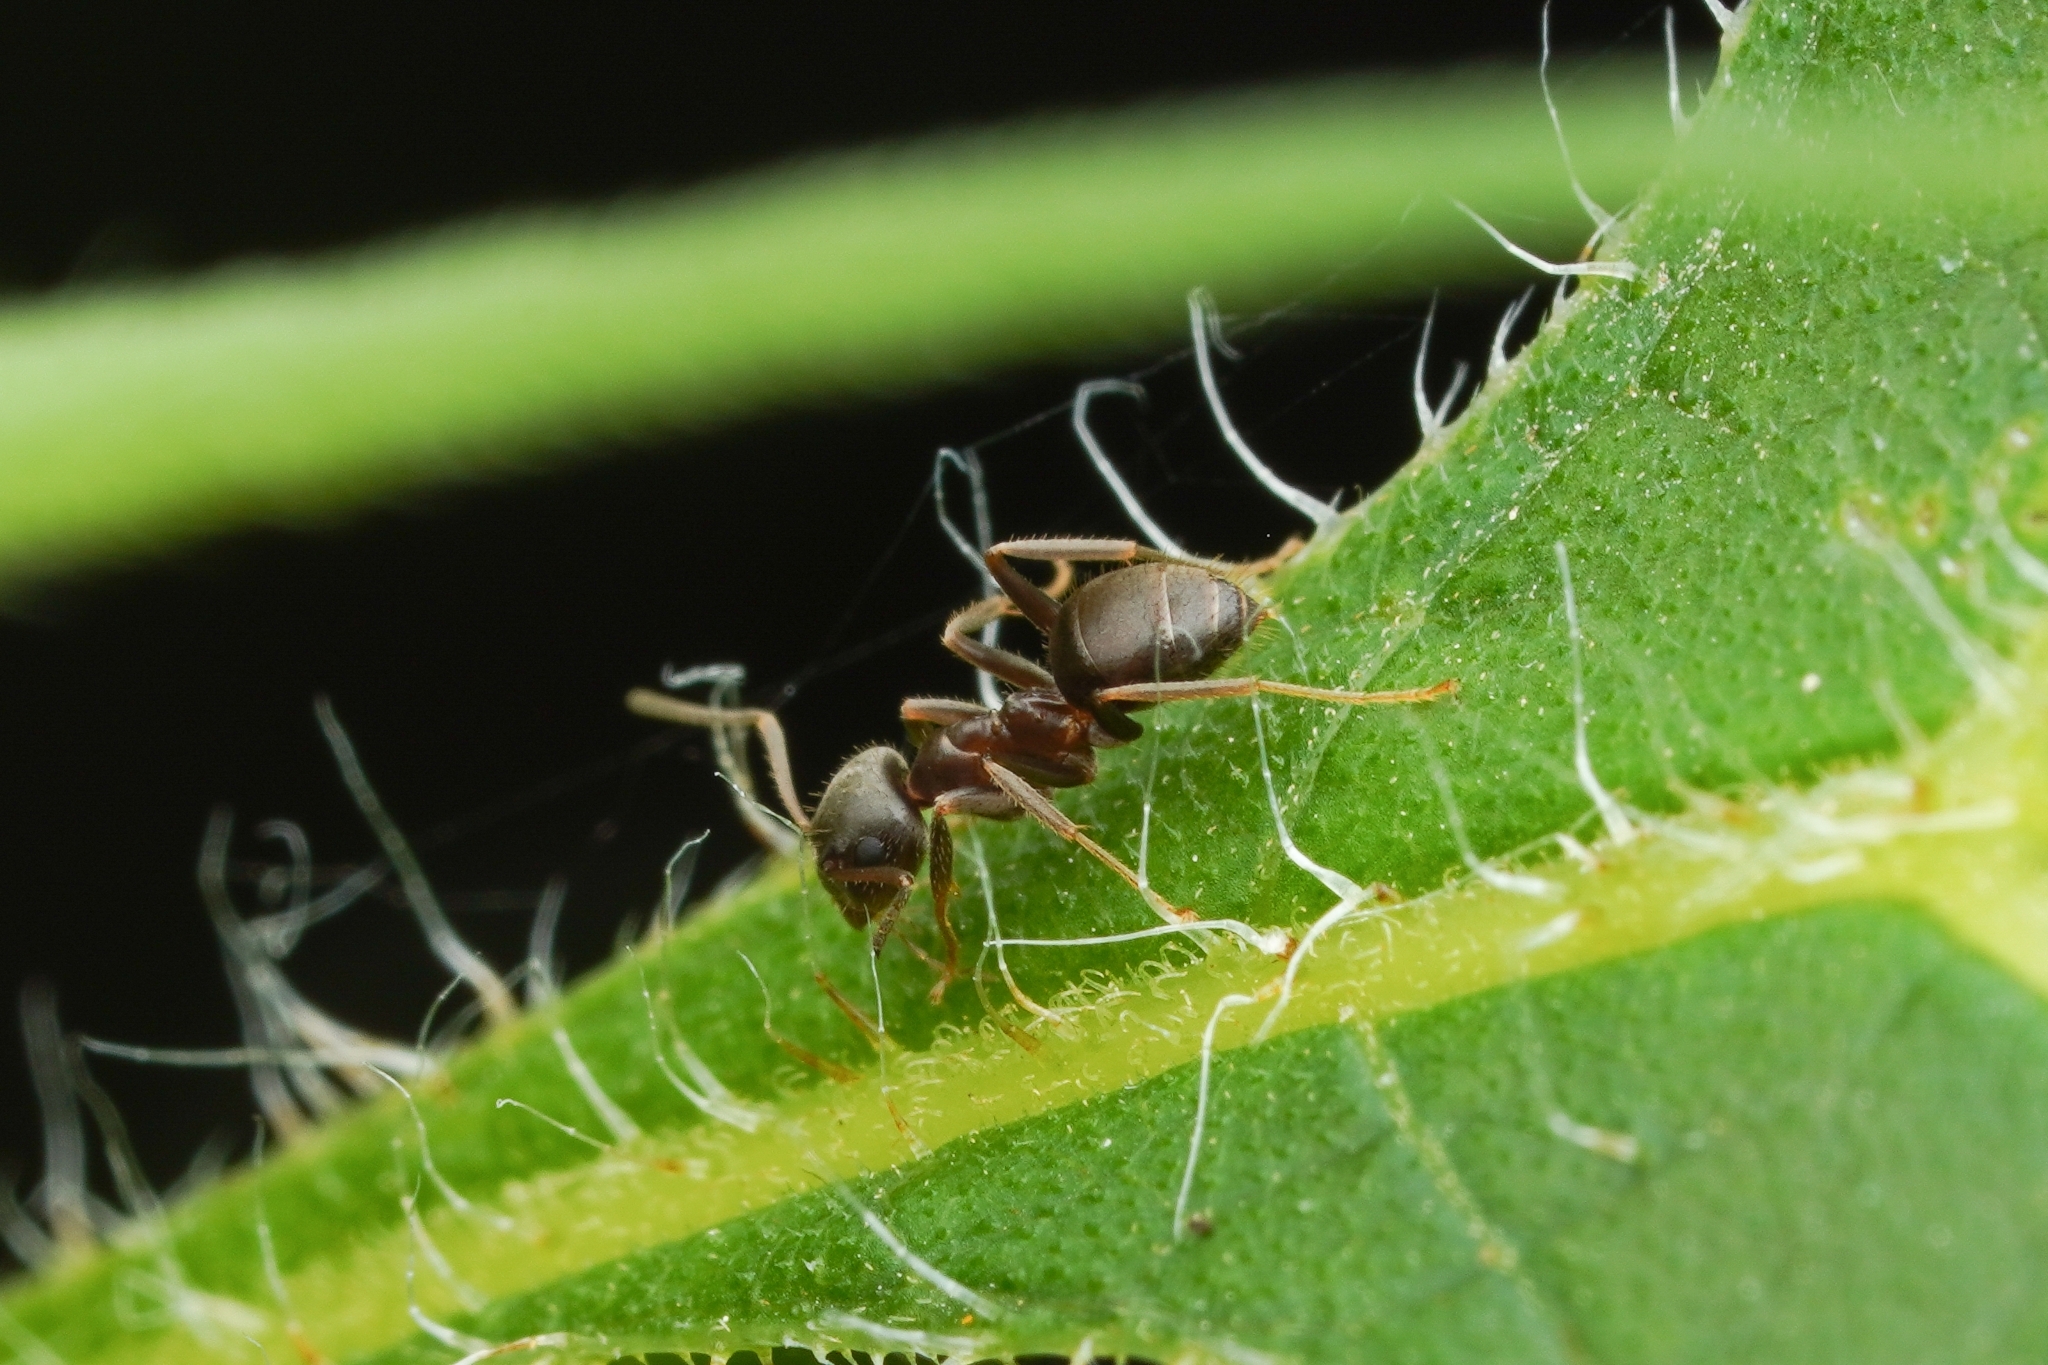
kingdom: Animalia
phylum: Arthropoda
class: Insecta
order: Hymenoptera
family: Formicidae
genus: Lasius
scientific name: Lasius japonicus
